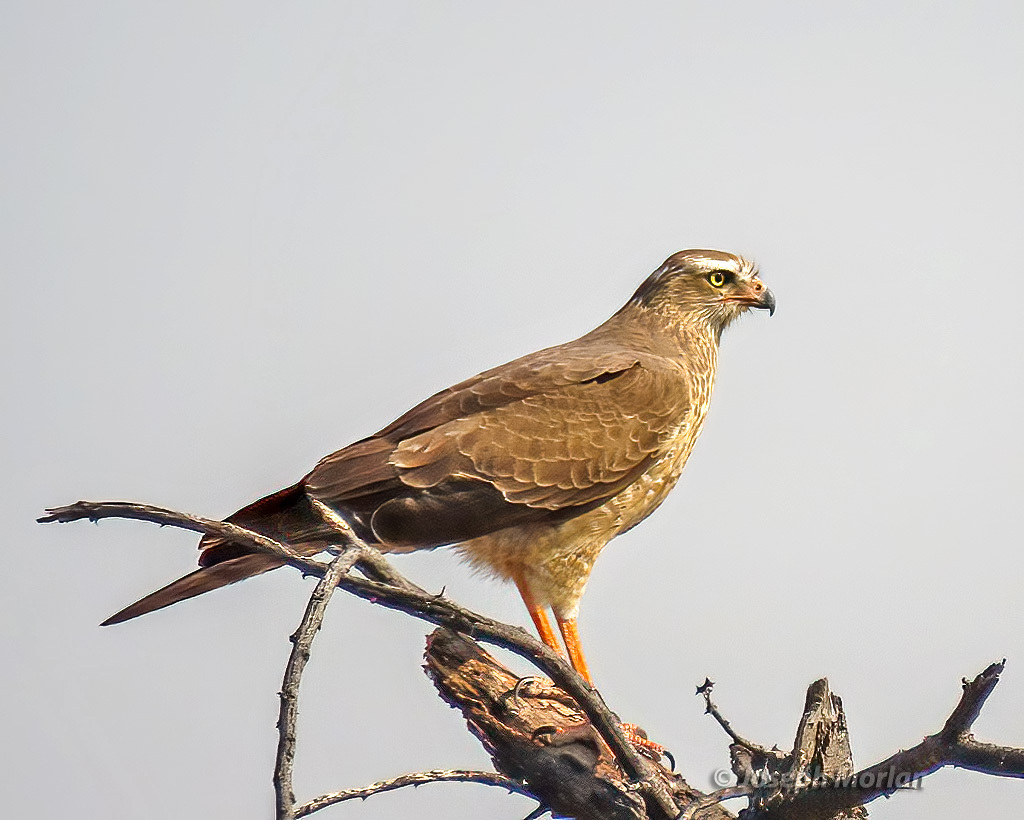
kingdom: Animalia
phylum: Chordata
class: Aves
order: Accipitriformes
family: Accipitridae
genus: Melierax
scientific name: Melierax canorus
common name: Pale chanting-goshawk
